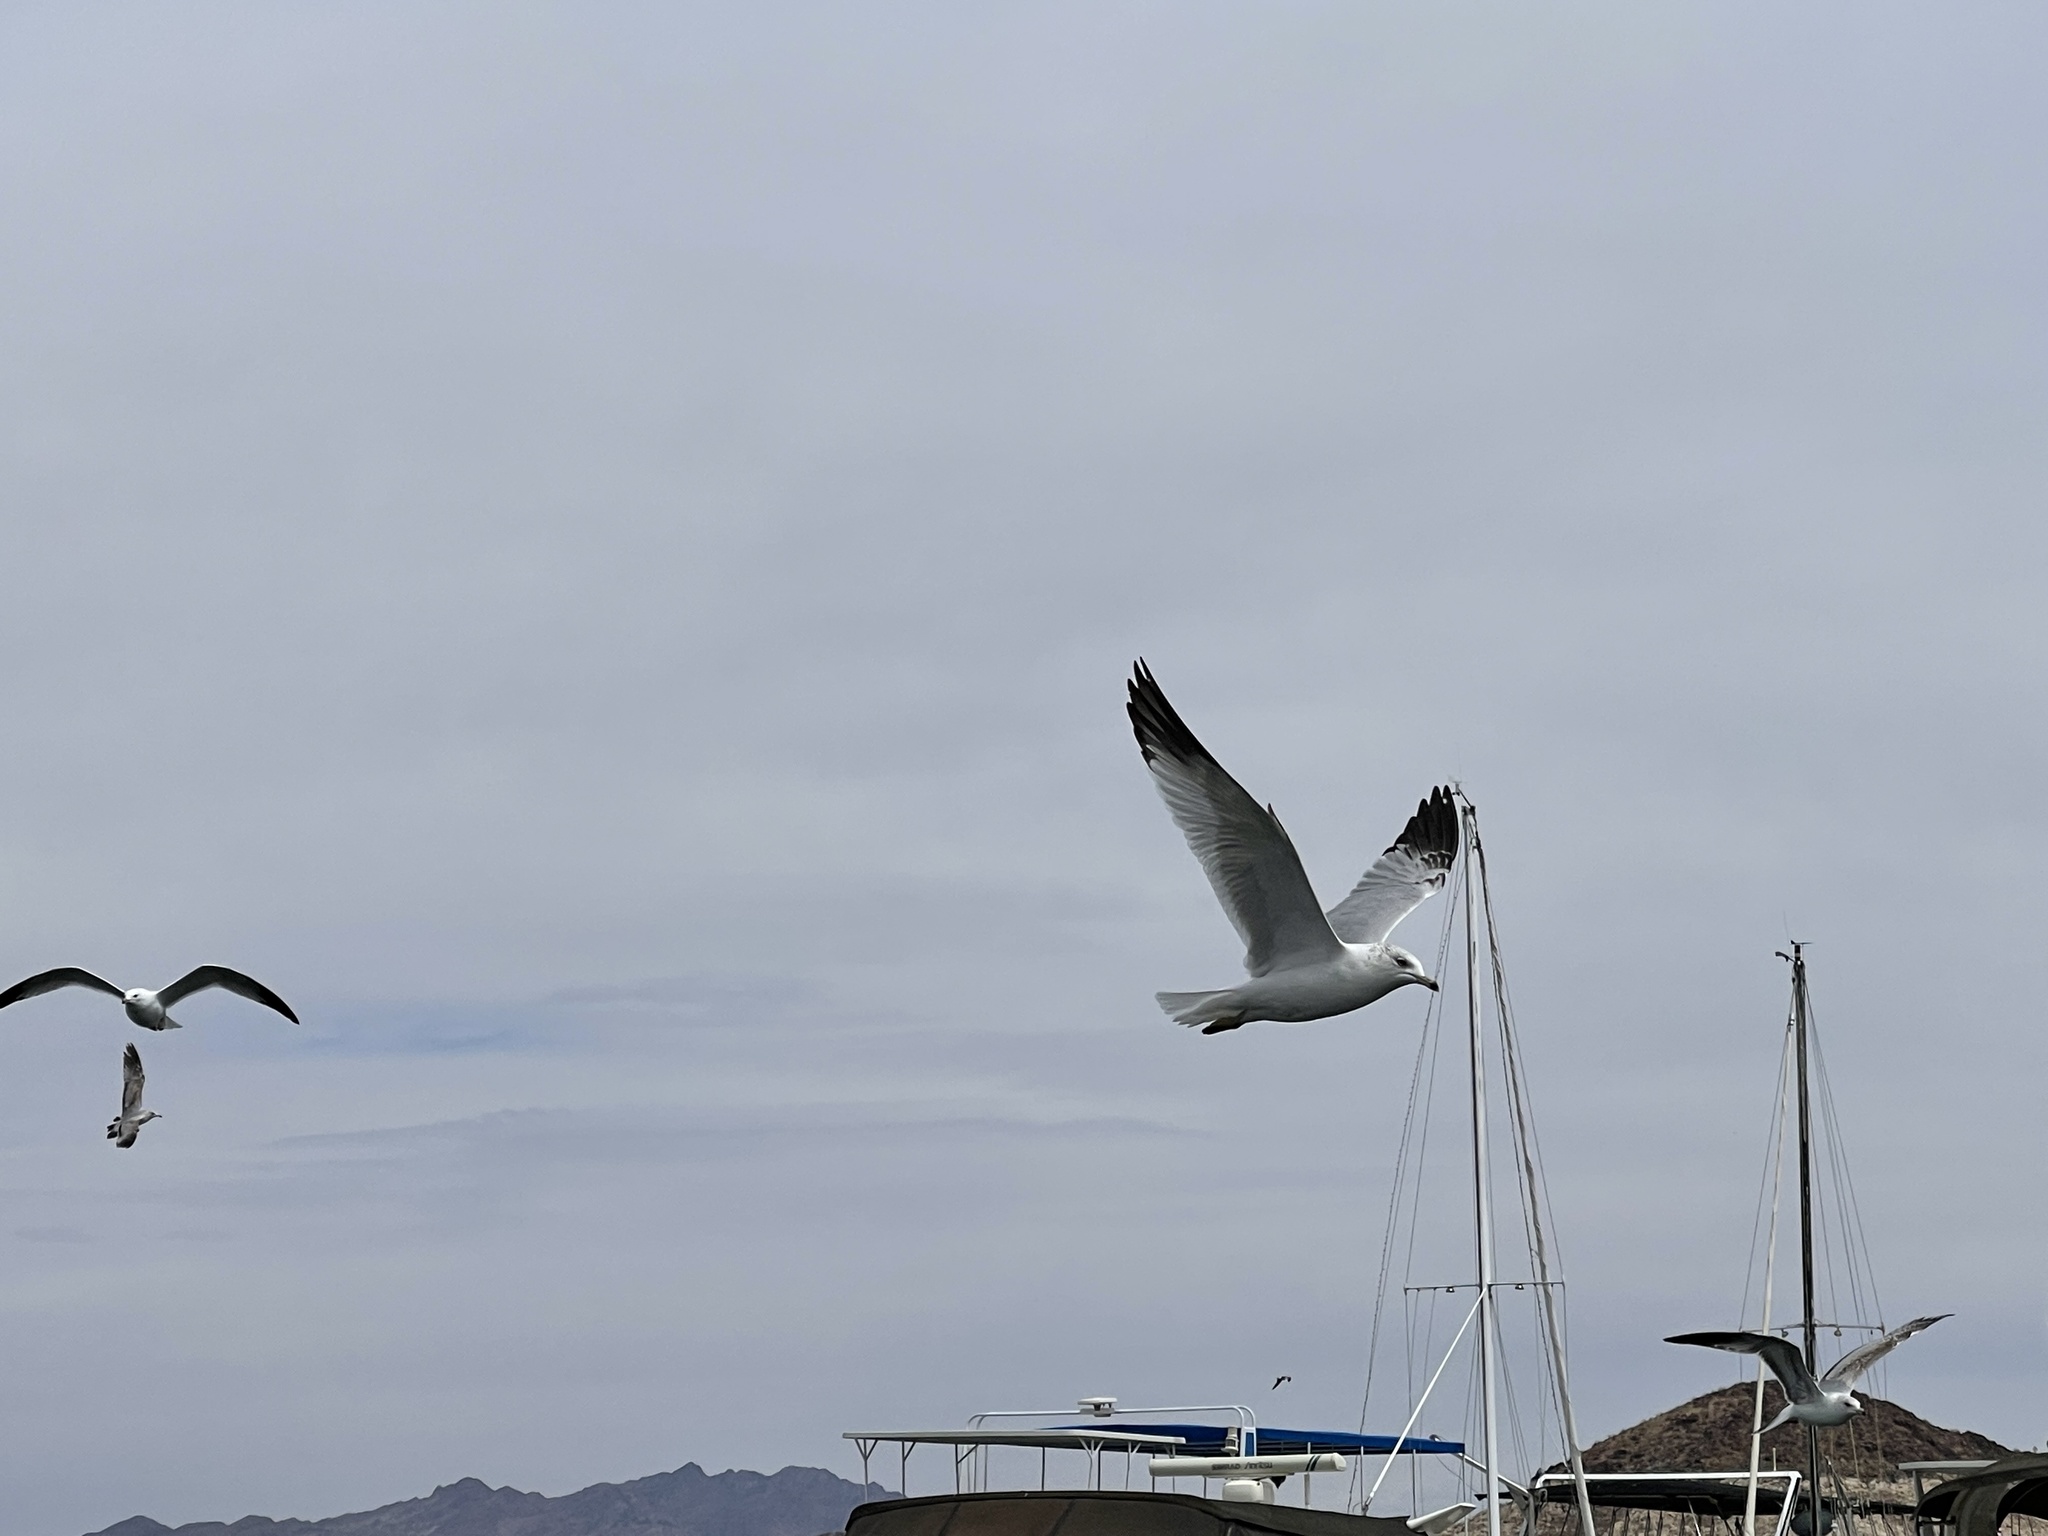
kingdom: Animalia
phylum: Chordata
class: Aves
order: Charadriiformes
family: Laridae
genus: Larus
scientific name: Larus delawarensis
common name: Ring-billed gull
